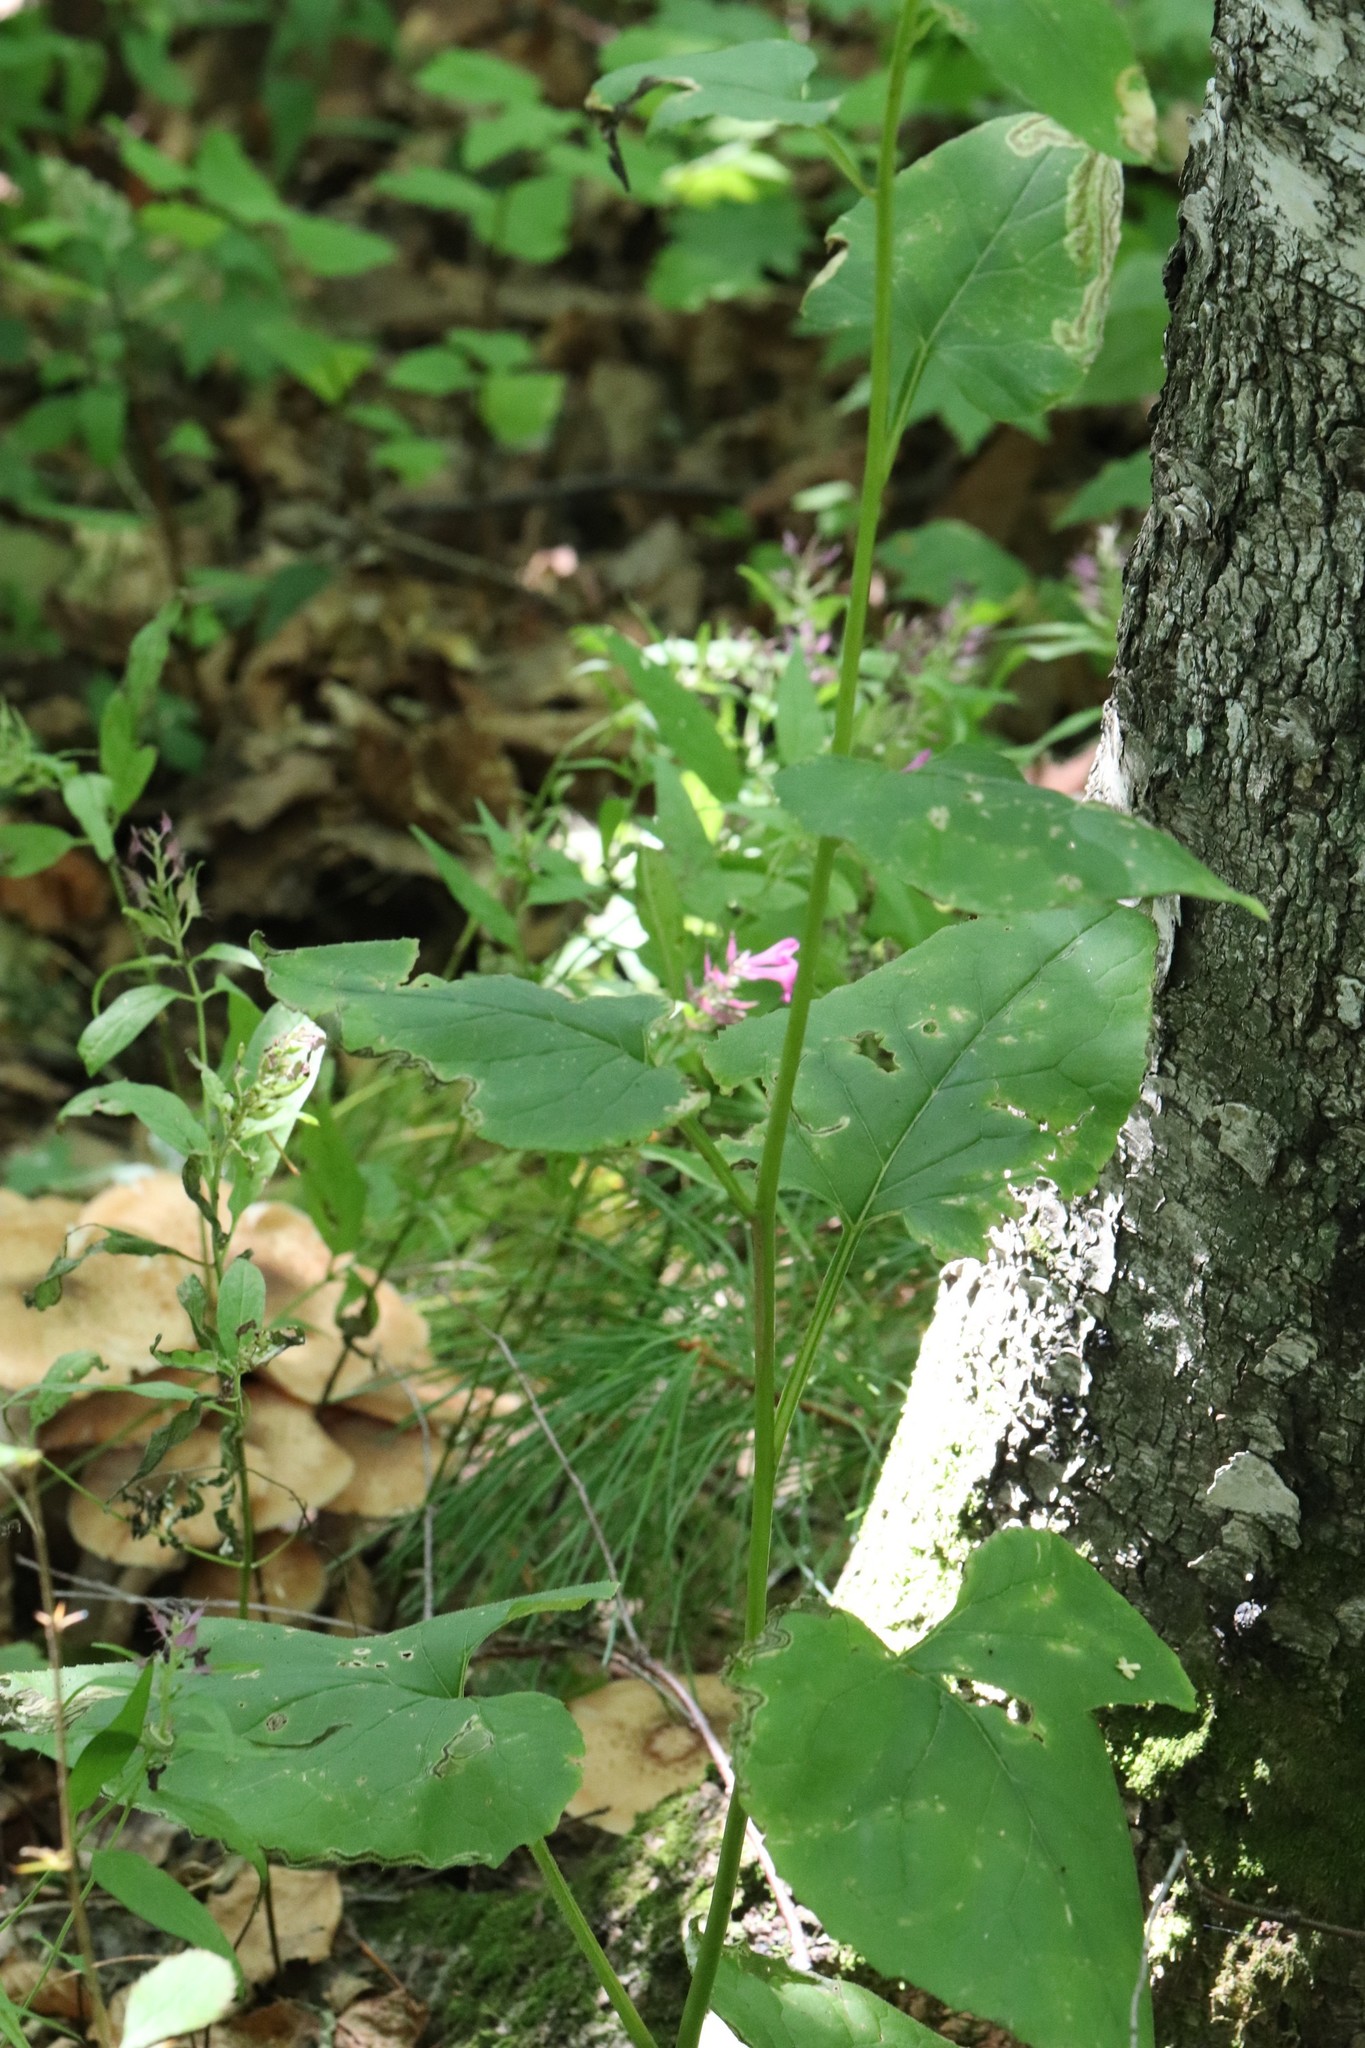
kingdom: Plantae
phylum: Tracheophyta
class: Magnoliopsida
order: Asterales
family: Asteraceae
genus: Aster
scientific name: Aster scaber
